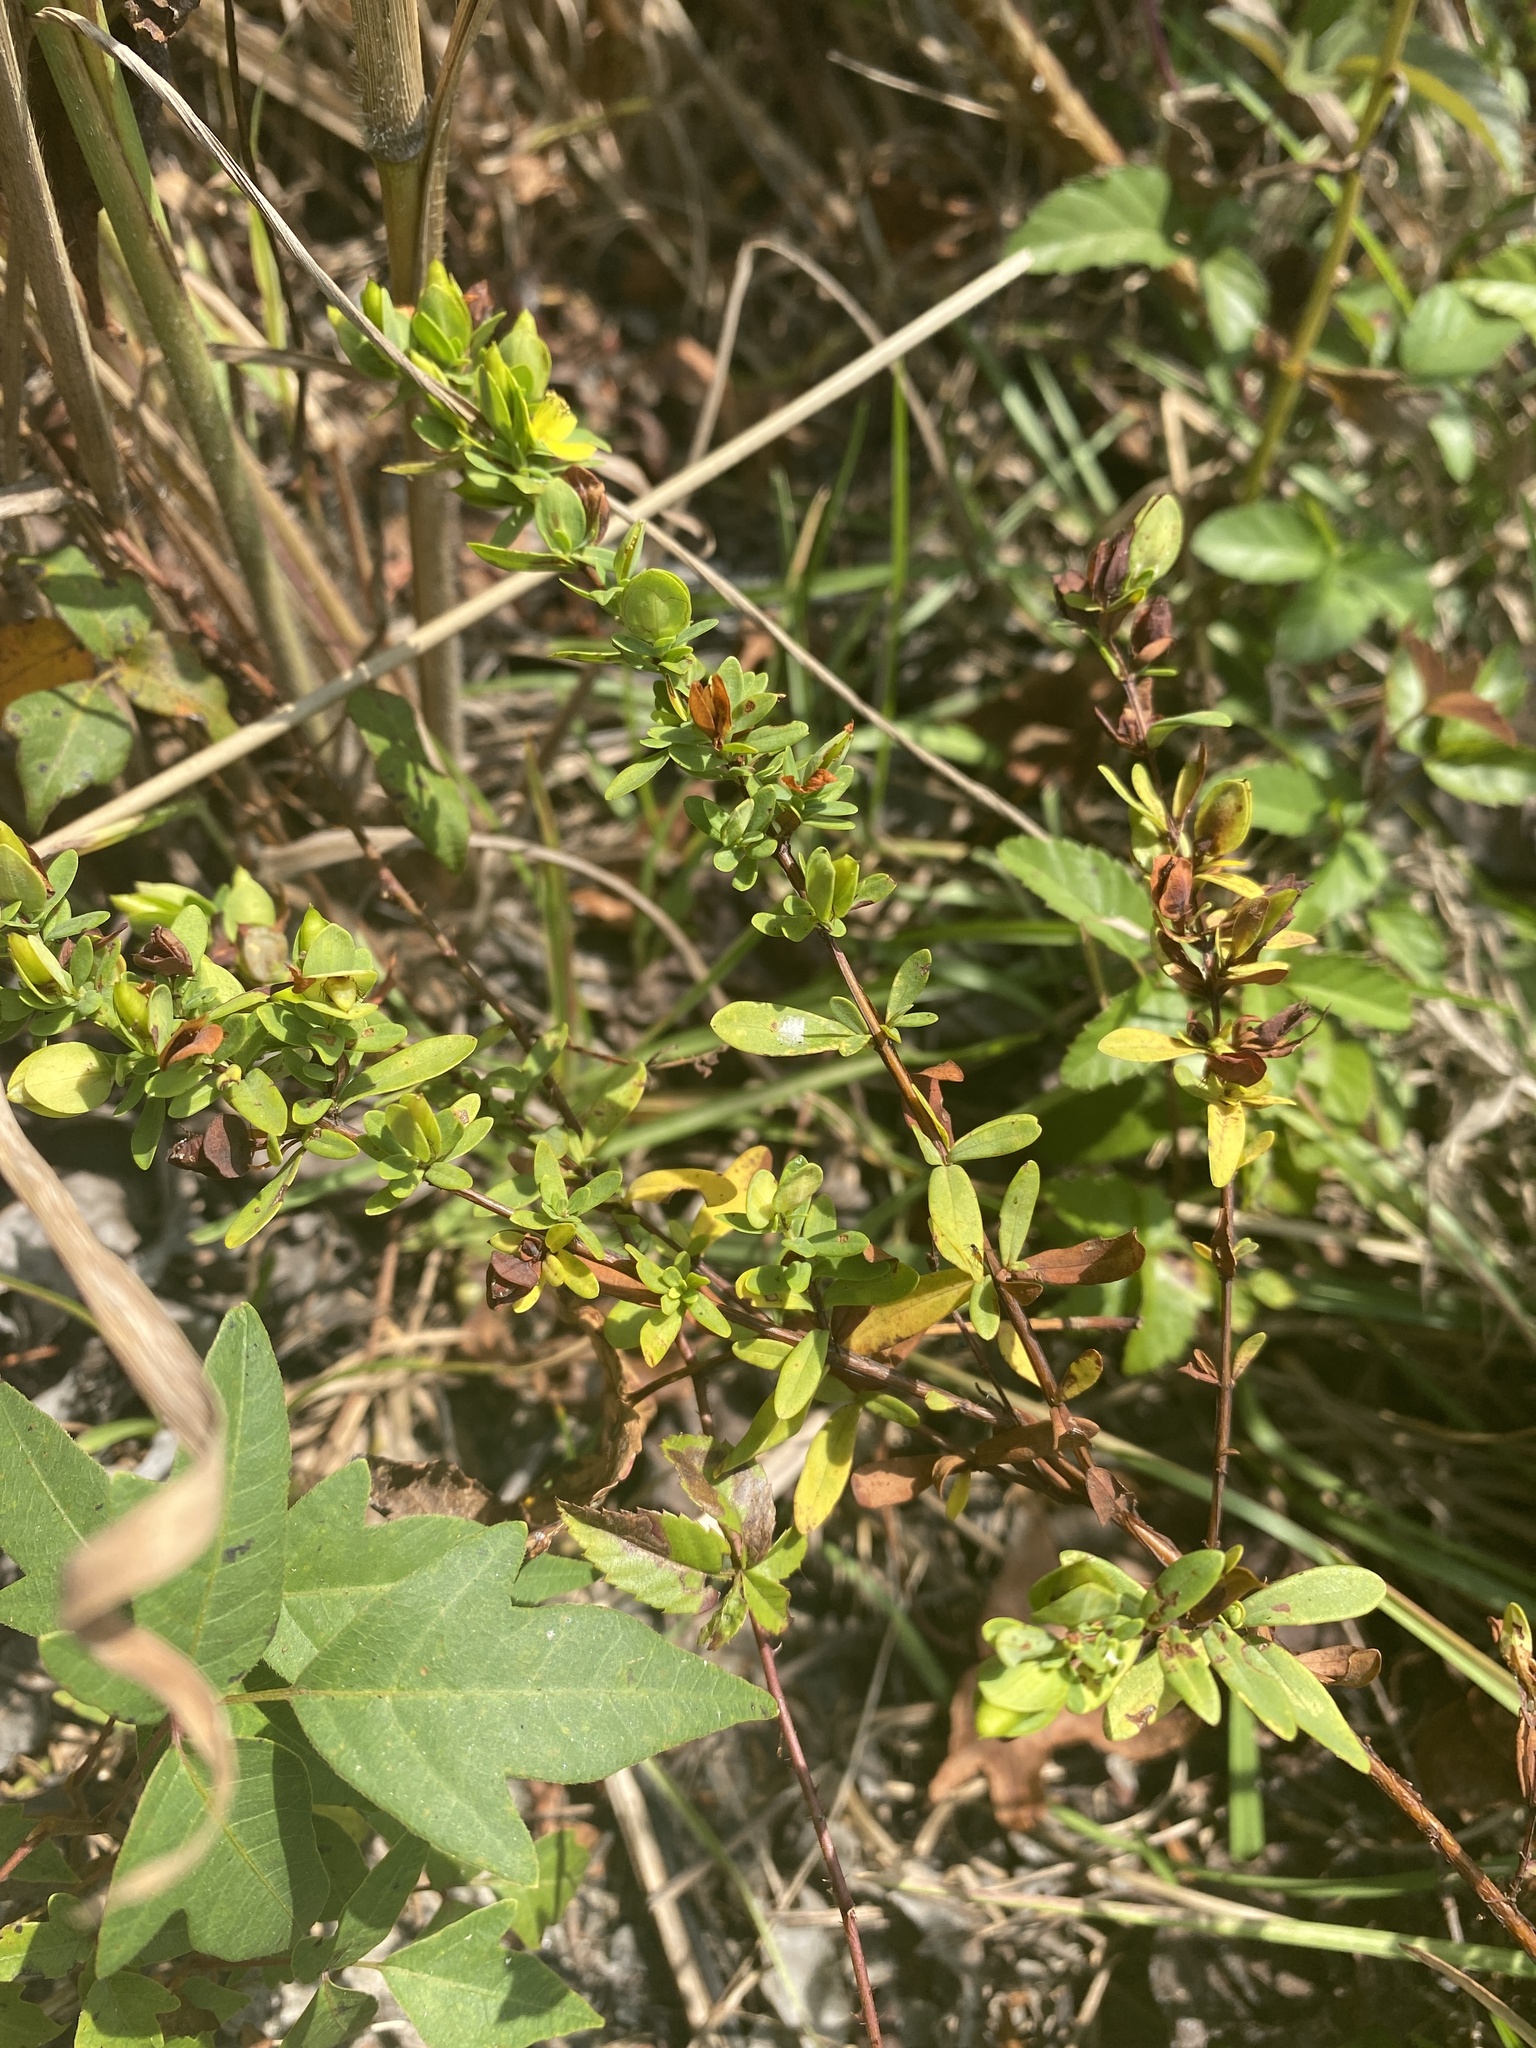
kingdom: Plantae
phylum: Tracheophyta
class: Magnoliopsida
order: Malpighiales
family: Hypericaceae
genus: Hypericum
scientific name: Hypericum hypericoides
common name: St. andrew's cross
